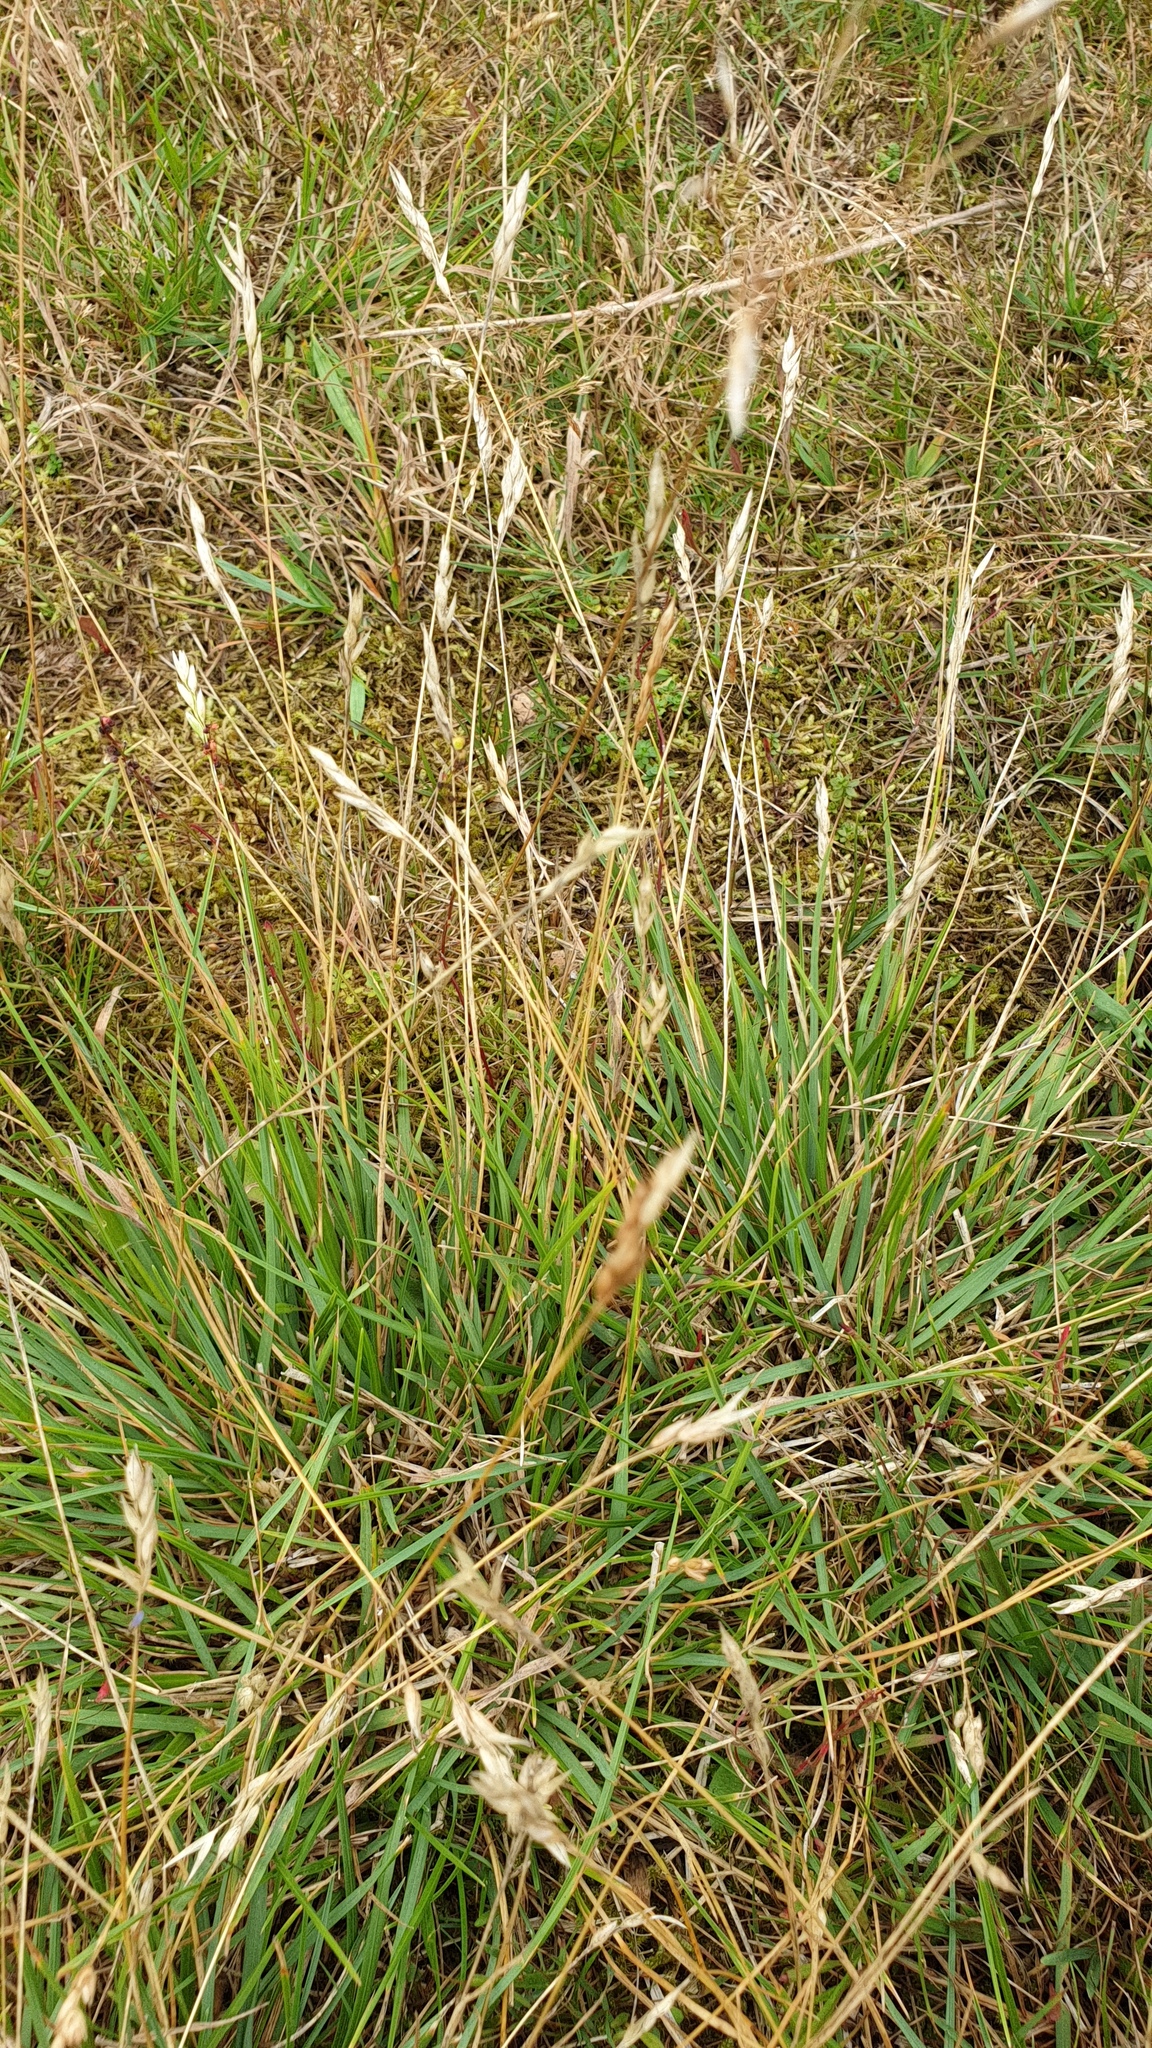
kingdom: Plantae
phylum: Tracheophyta
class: Liliopsida
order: Poales
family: Poaceae
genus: Danthonia
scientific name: Danthonia decumbens
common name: Common heathgrass
